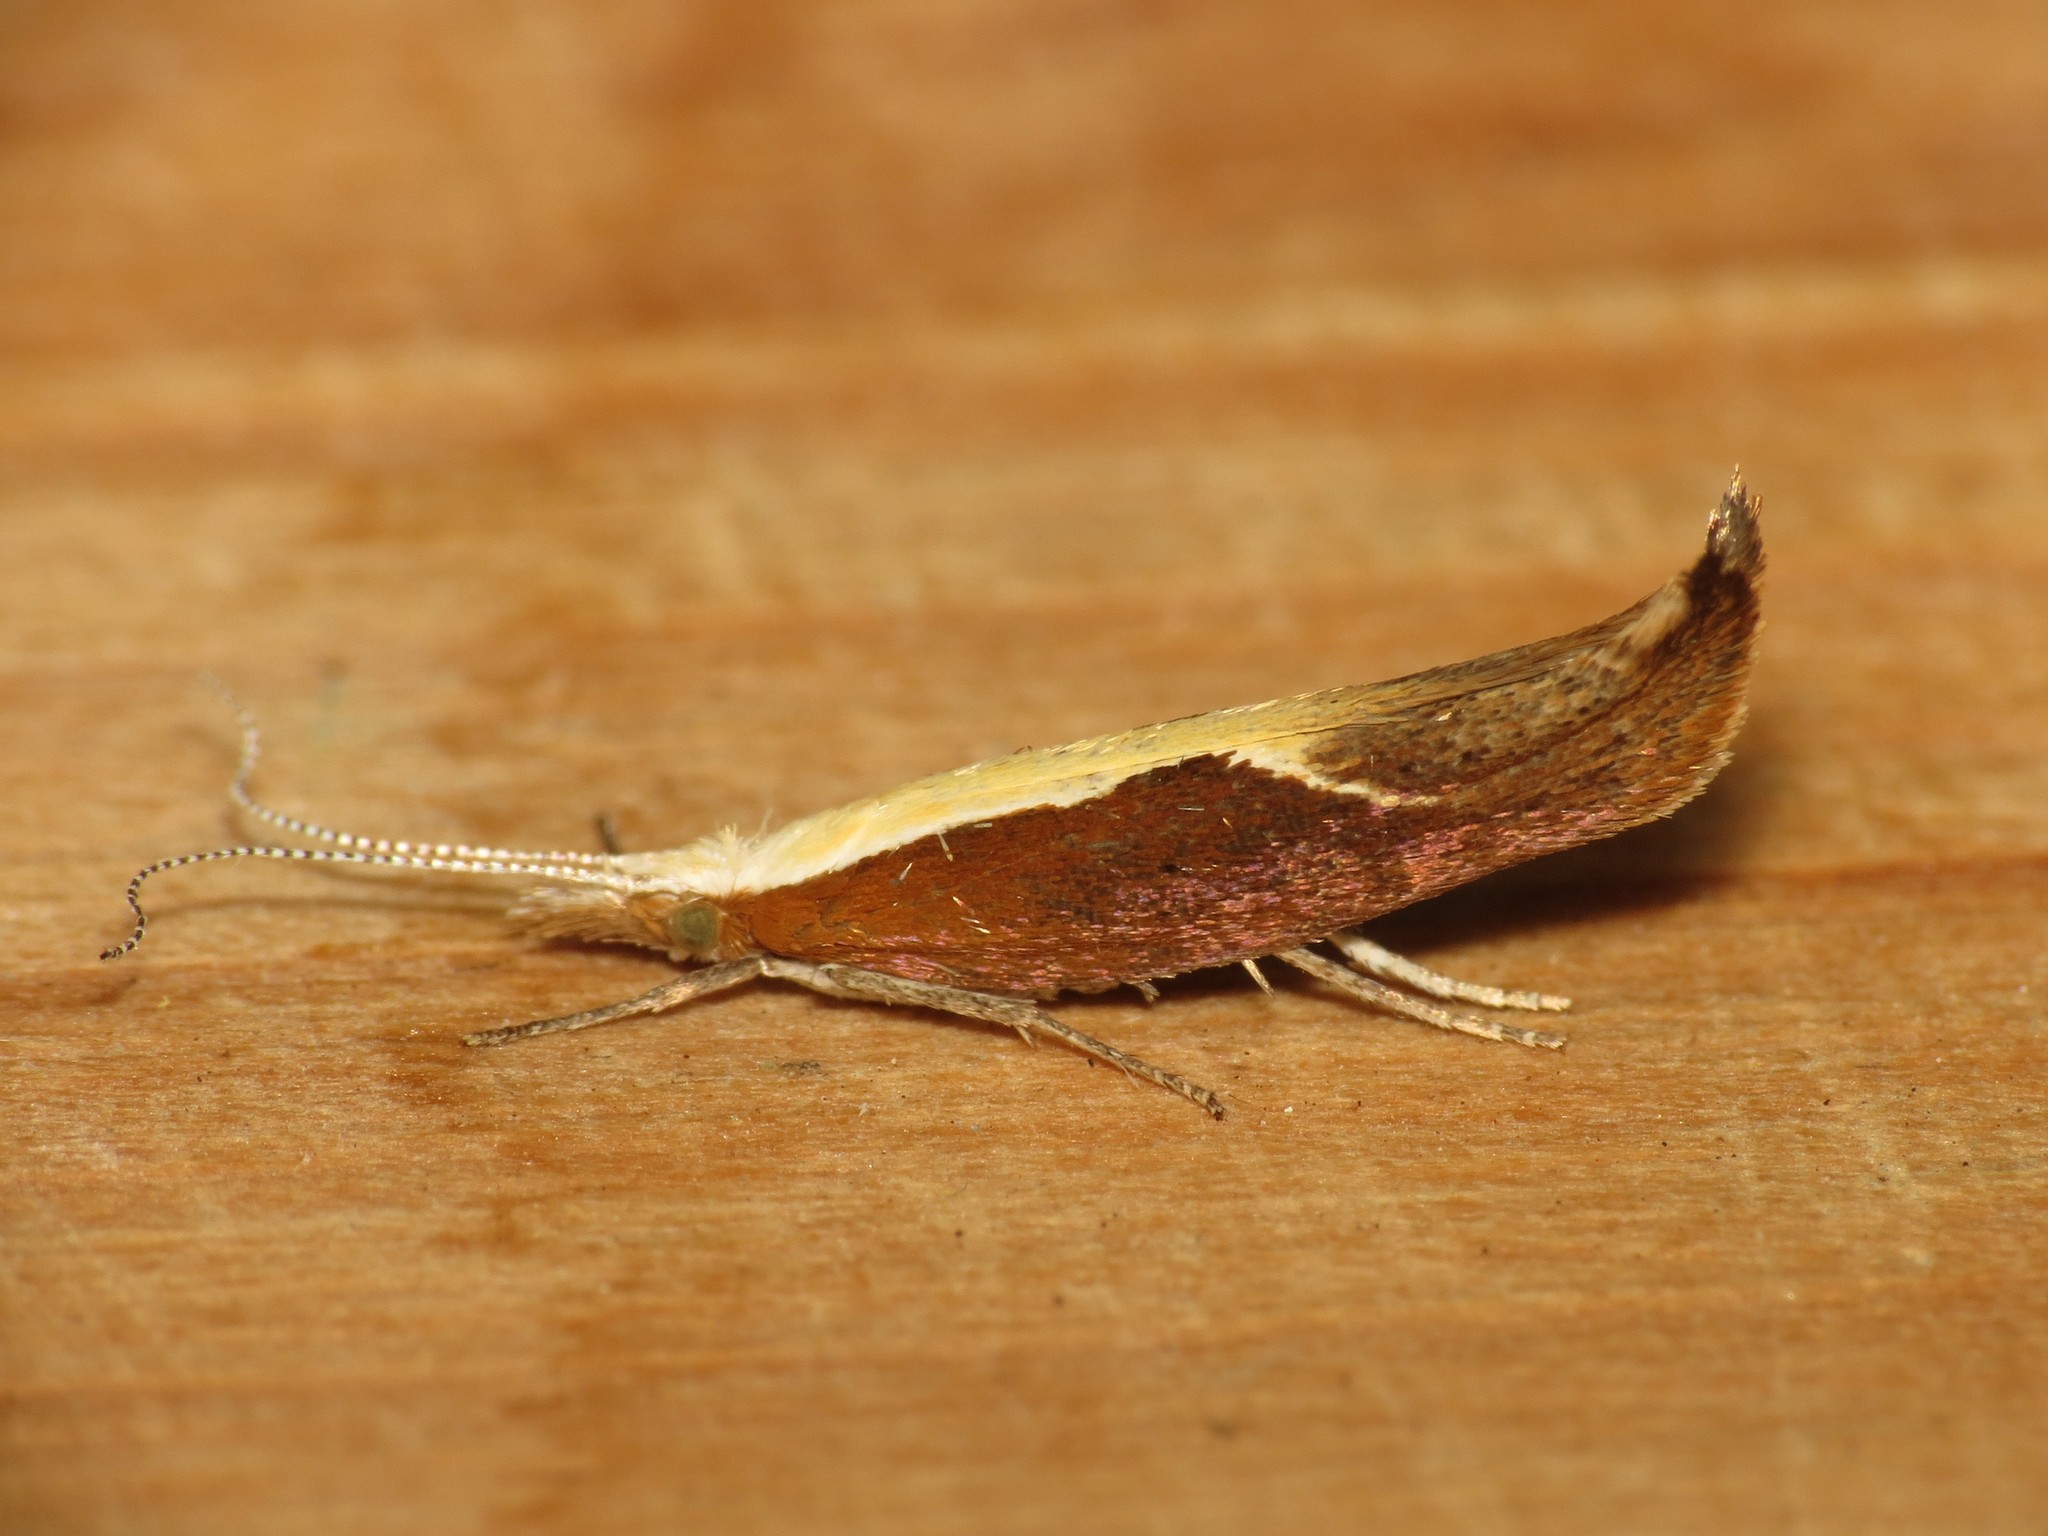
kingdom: Animalia
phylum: Arthropoda
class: Insecta
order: Lepidoptera
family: Ypsolophidae
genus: Ypsolopha
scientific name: Ypsolopha dentella
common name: Honeysuckle moth
